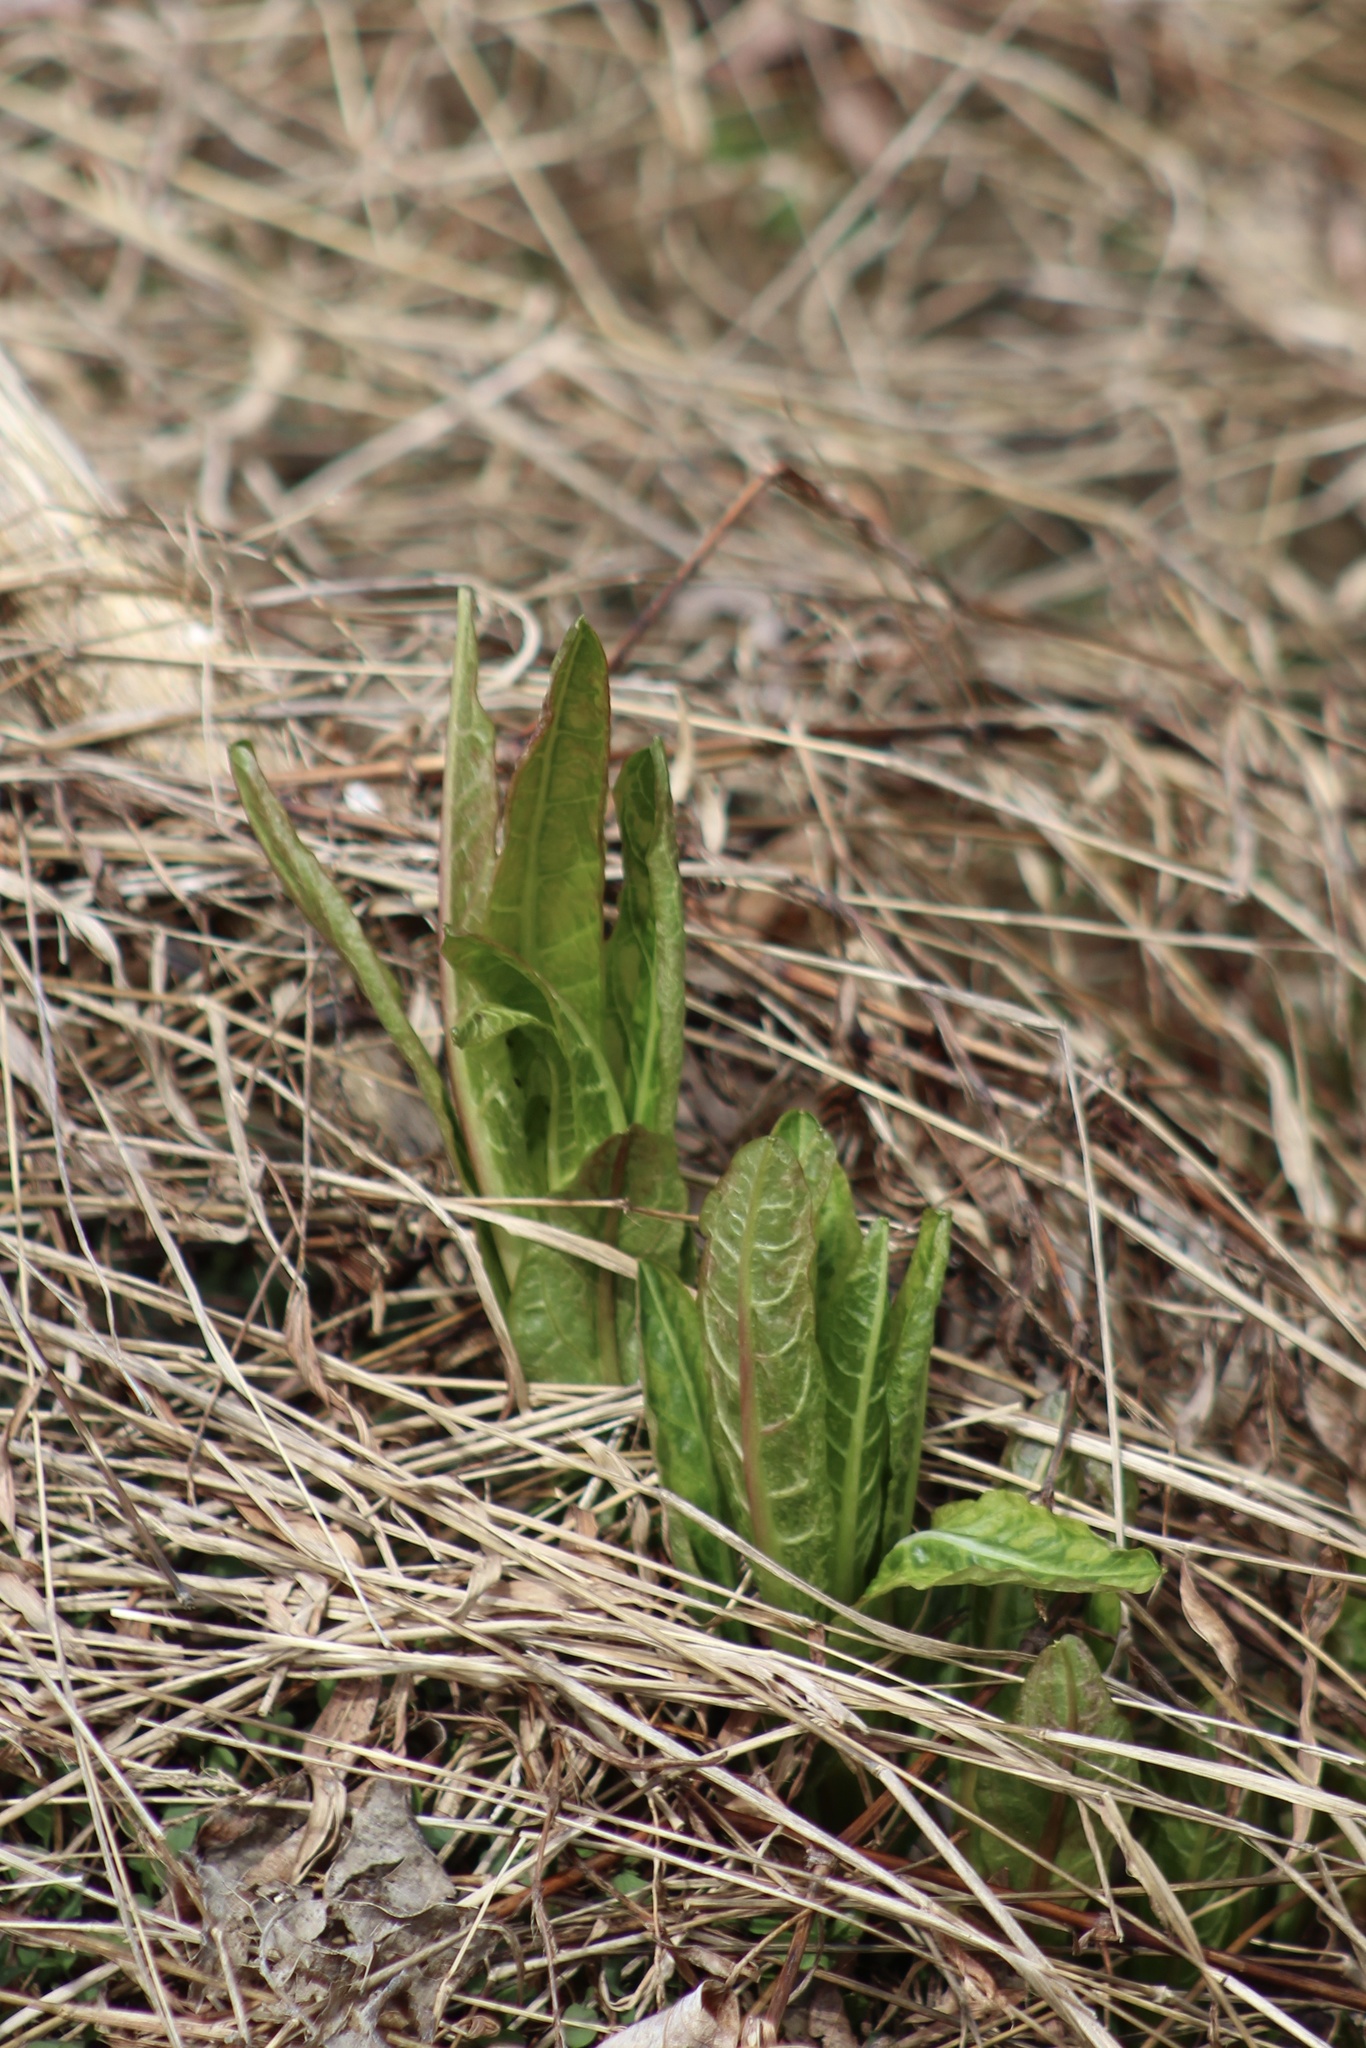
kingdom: Plantae
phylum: Tracheophyta
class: Magnoliopsida
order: Caryophyllales
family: Phytolaccaceae
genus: Phytolacca
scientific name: Phytolacca americana
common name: American pokeweed
